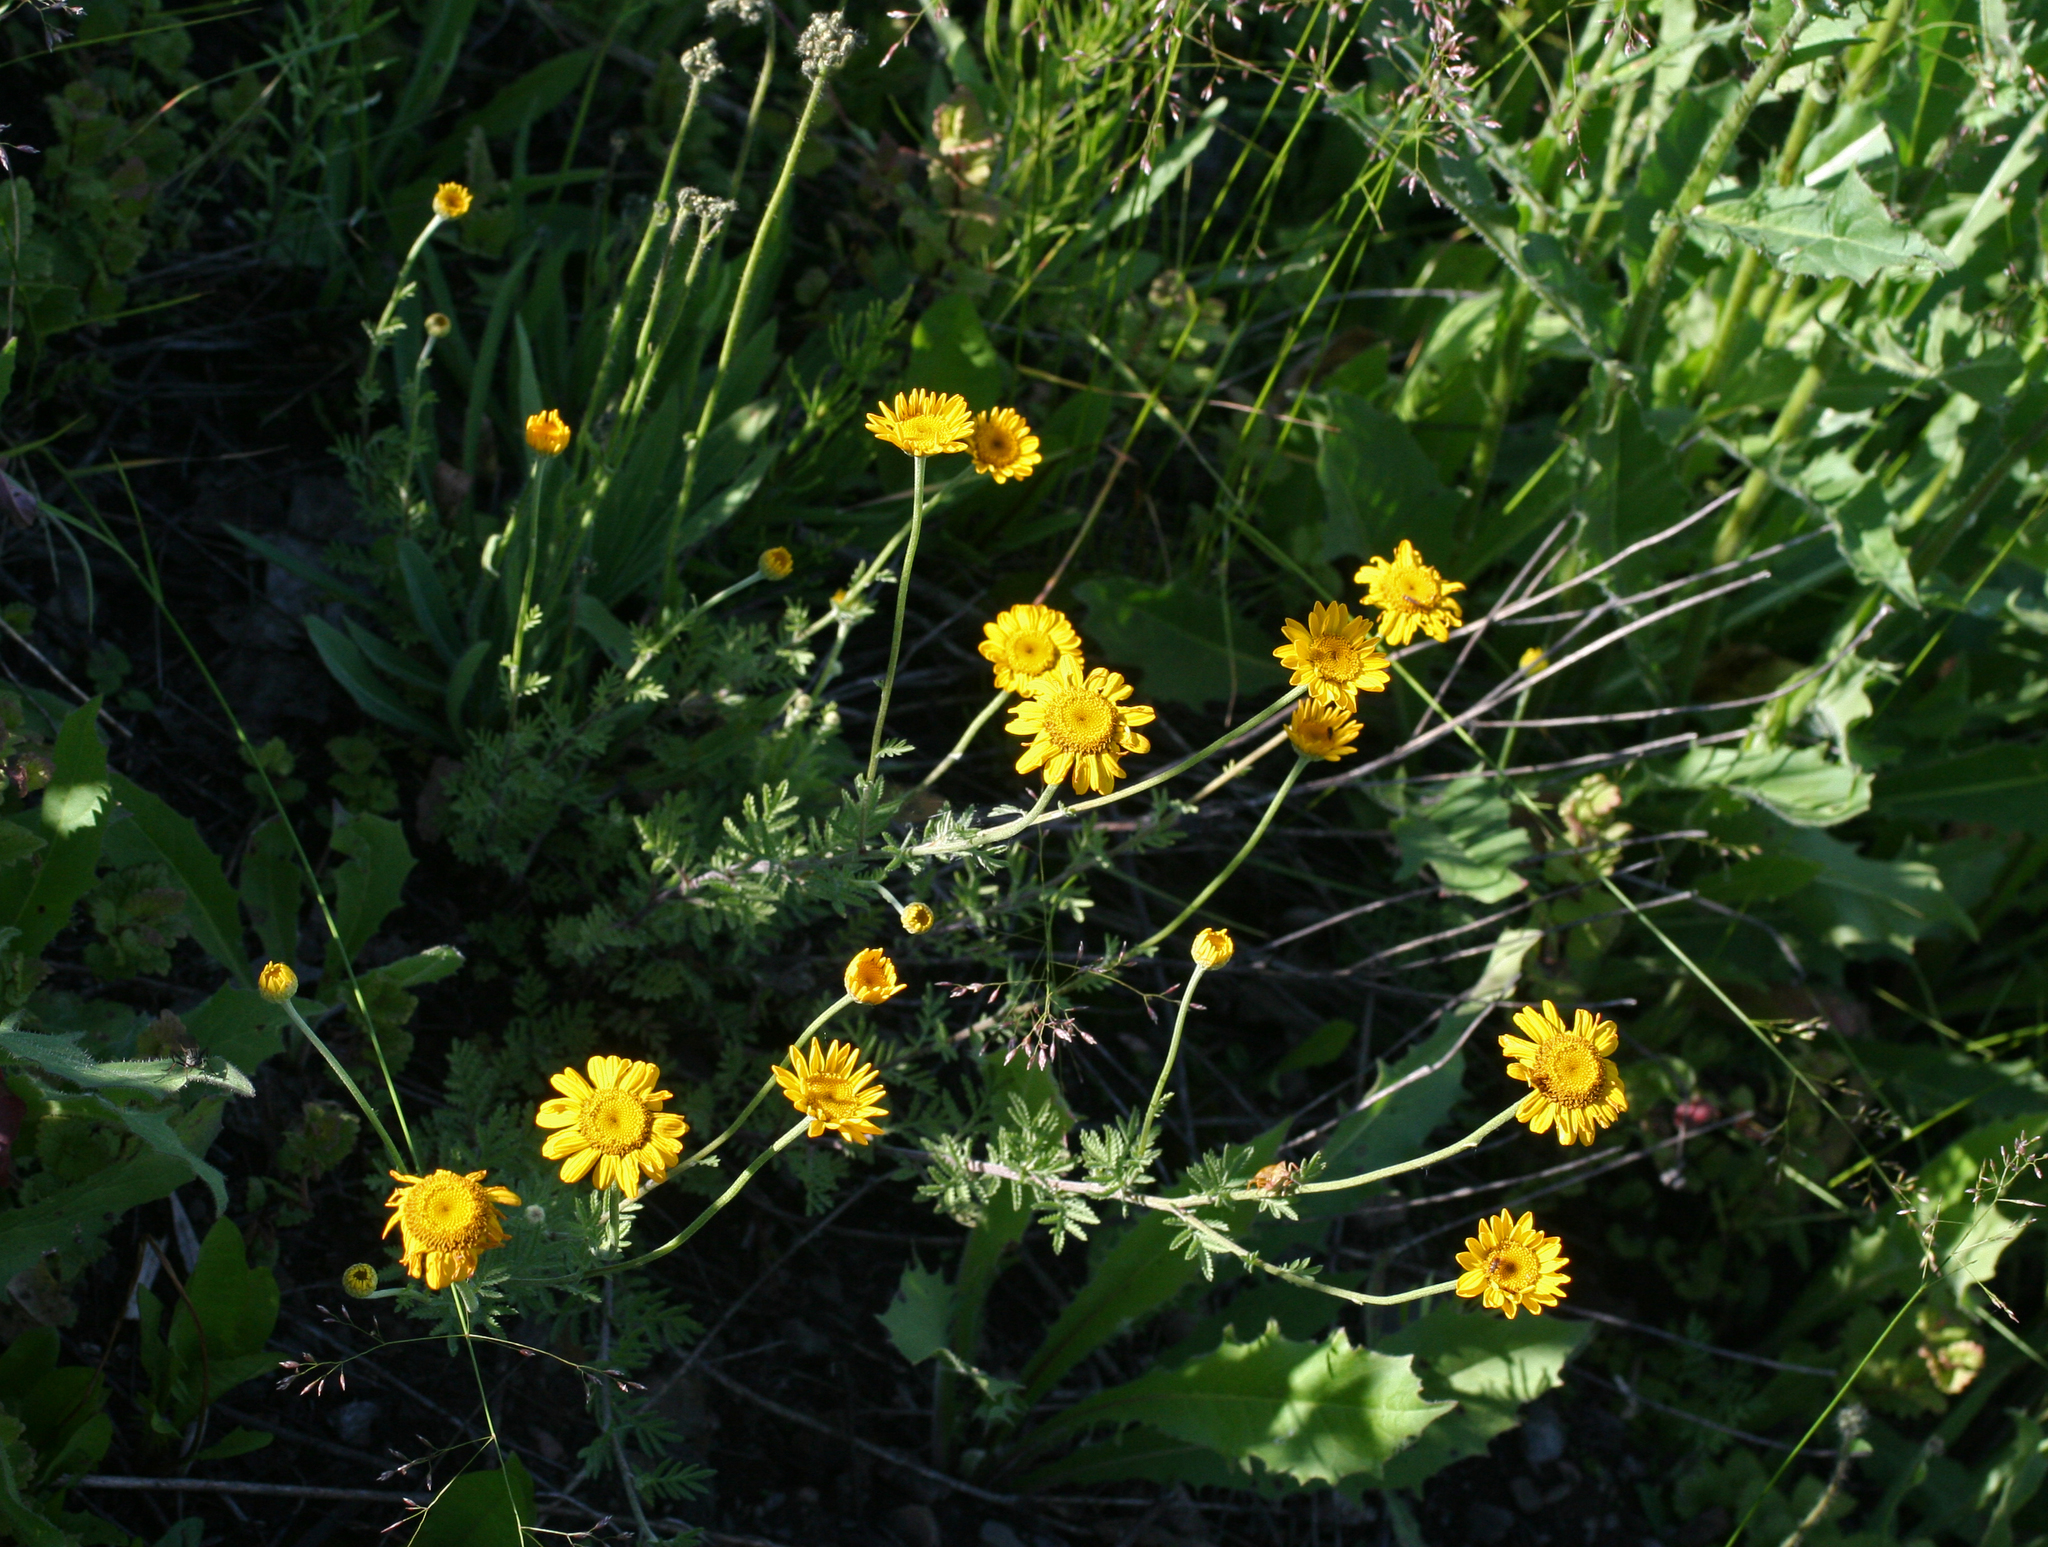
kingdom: Plantae
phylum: Tracheophyta
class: Magnoliopsida
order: Asterales
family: Asteraceae
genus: Cota
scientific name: Cota tinctoria
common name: Golden chamomile
